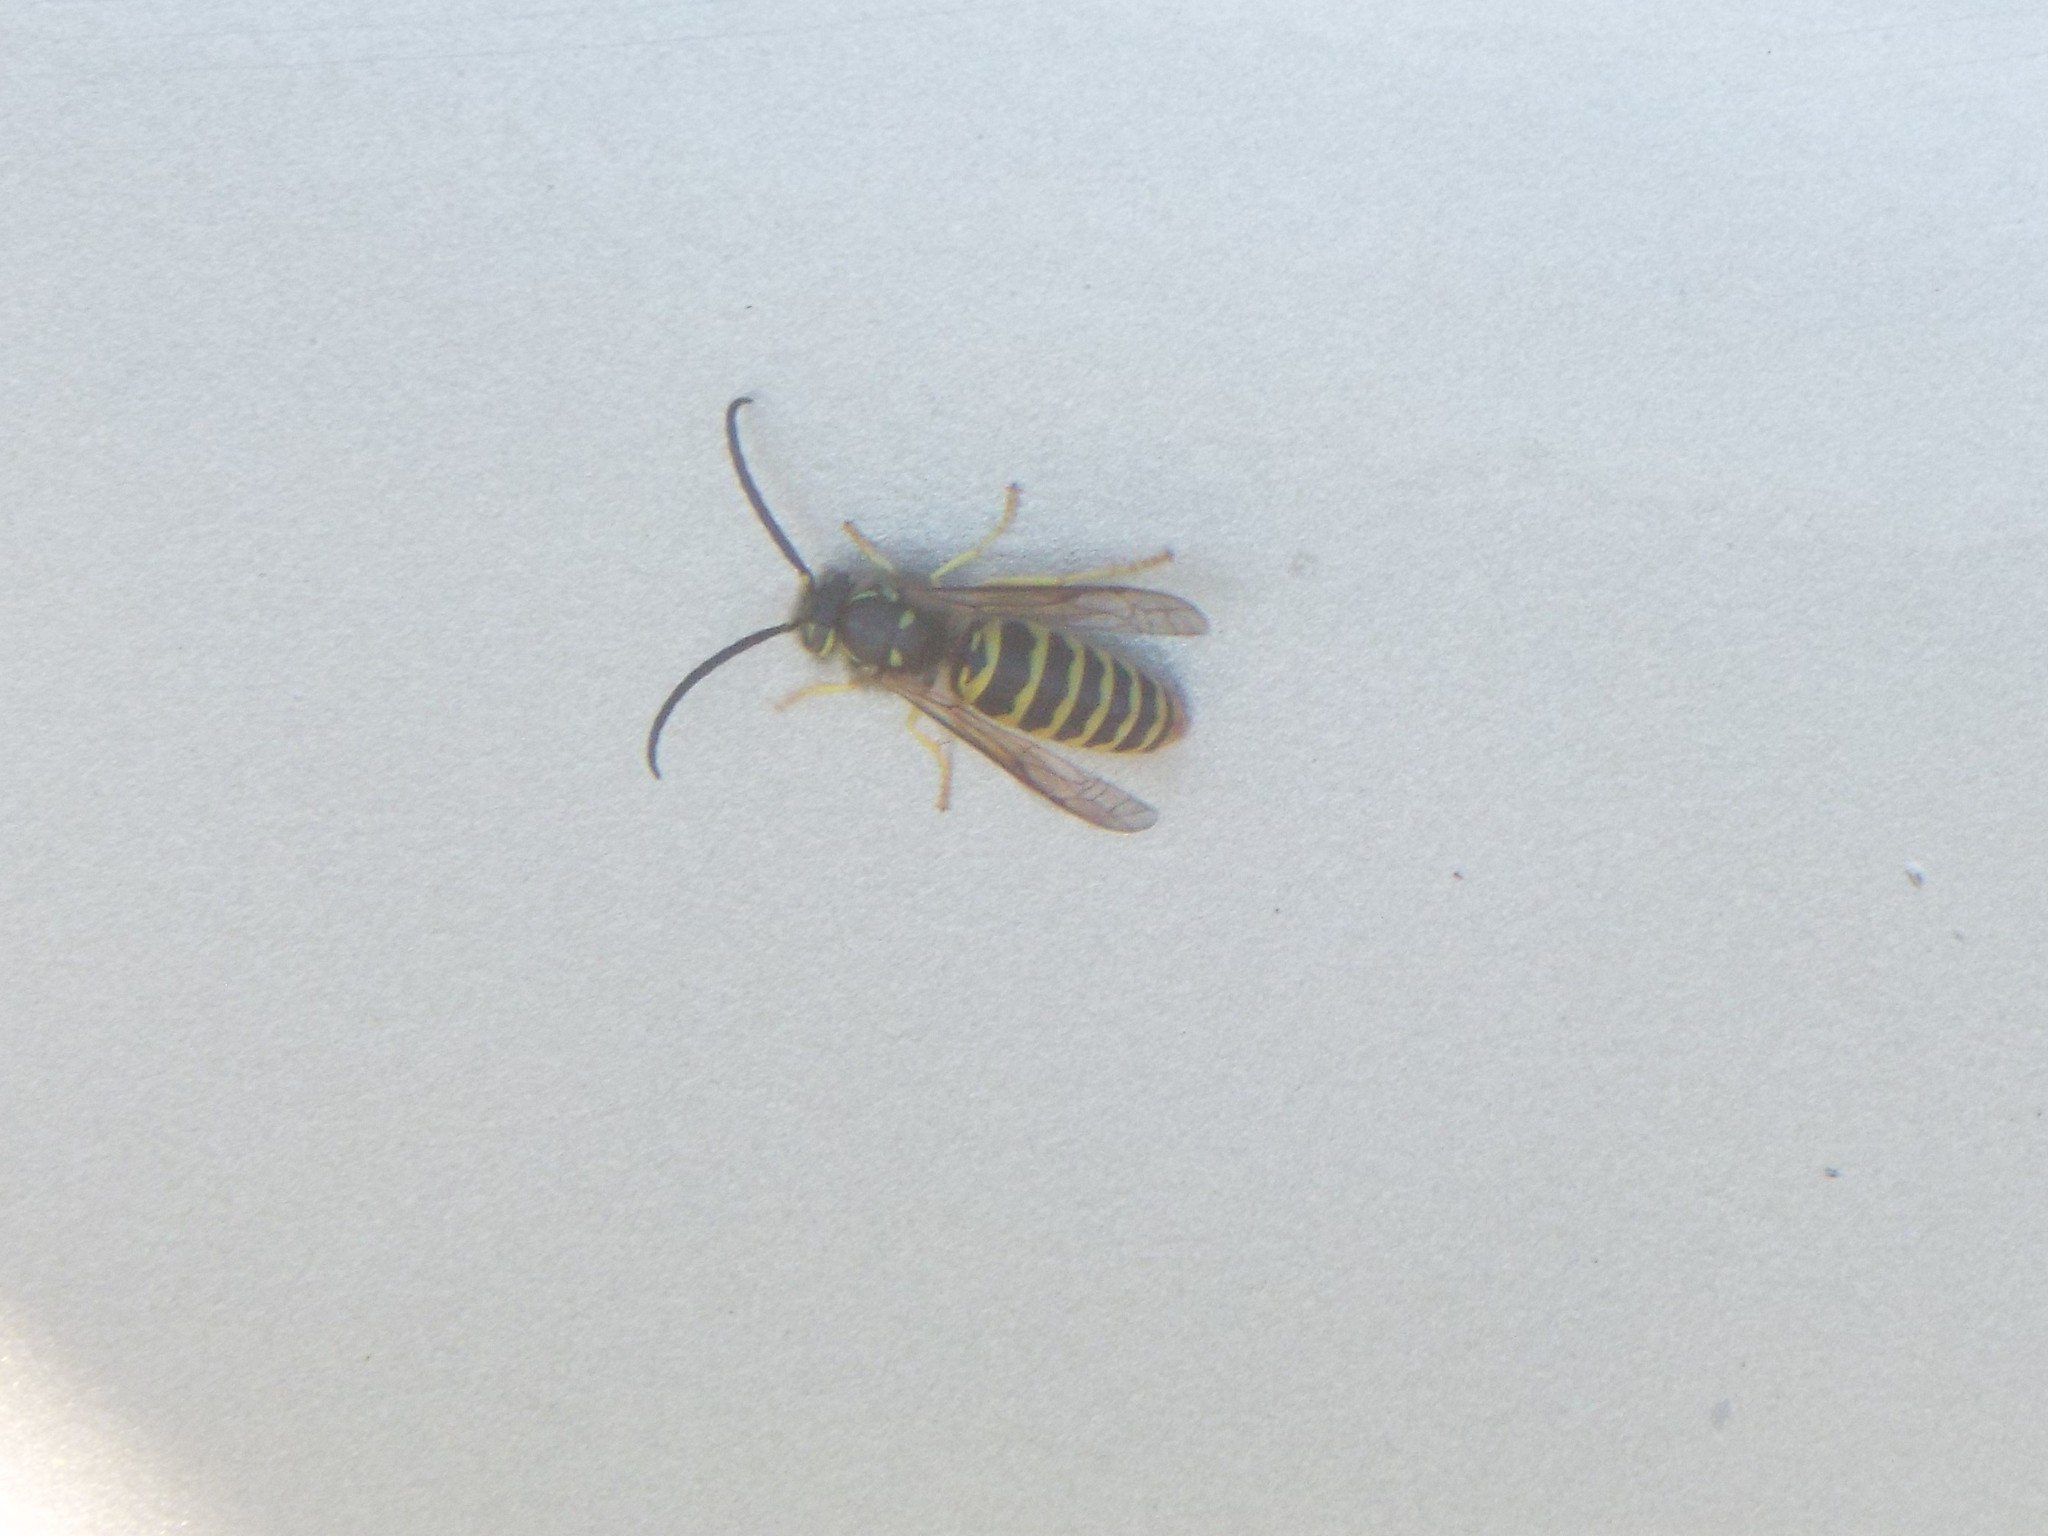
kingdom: Animalia
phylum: Arthropoda
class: Insecta
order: Hymenoptera
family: Vespidae
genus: Vespula
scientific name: Vespula maculifrons
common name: Eastern yellowjacket
